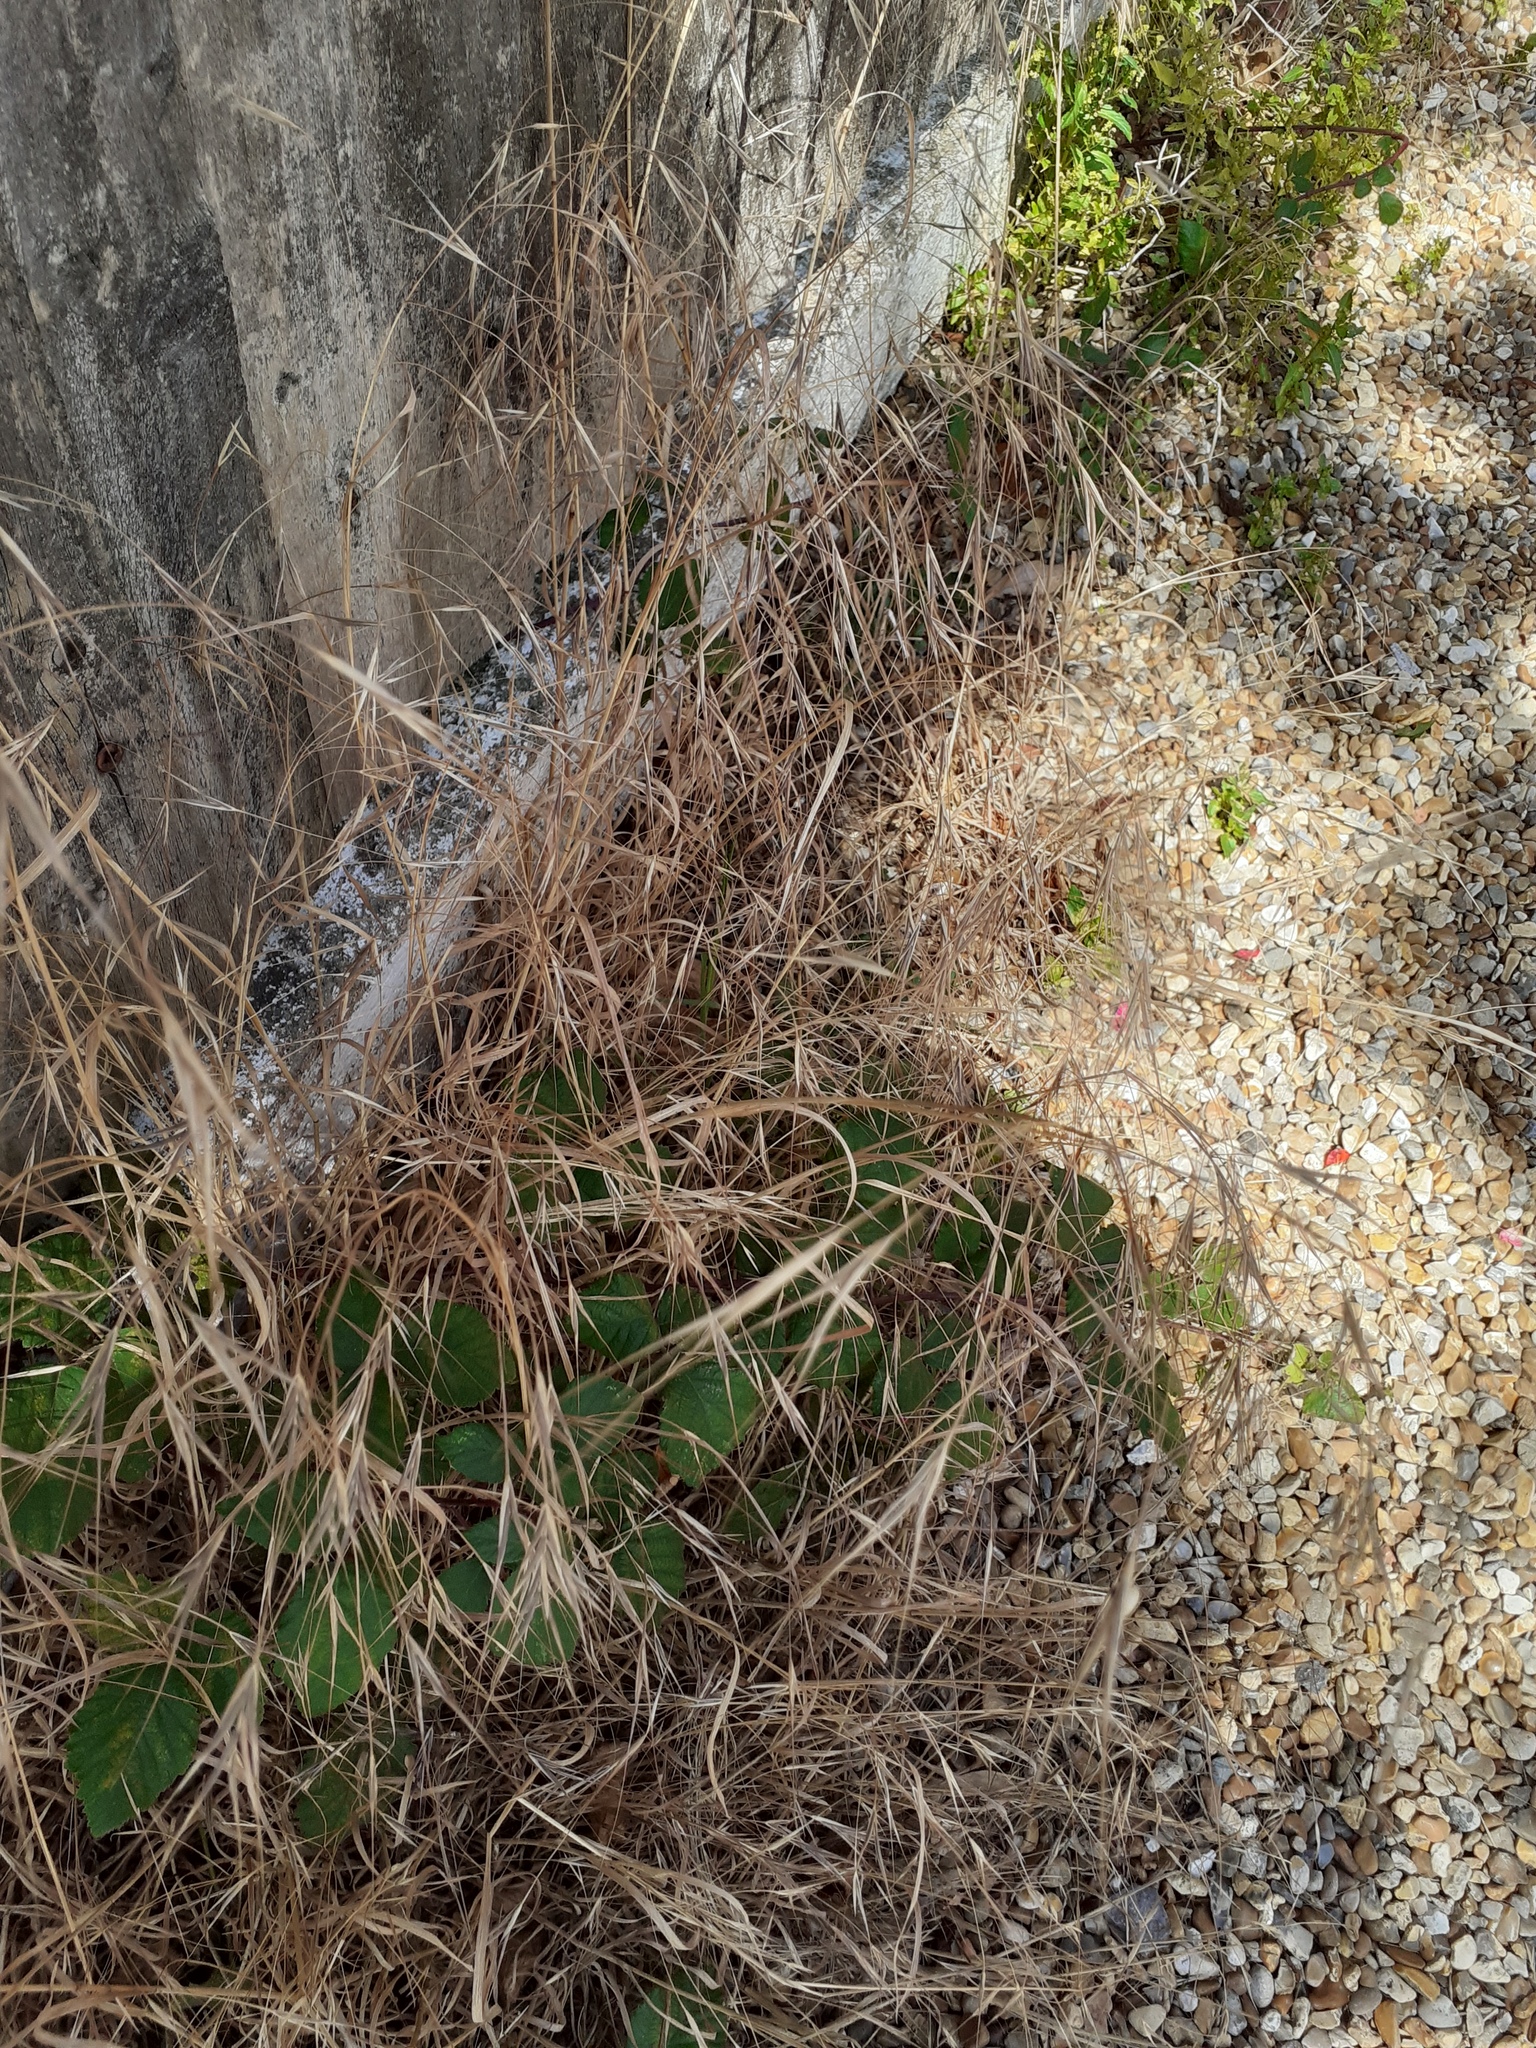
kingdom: Plantae
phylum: Tracheophyta
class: Liliopsida
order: Poales
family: Poaceae
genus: Bromus
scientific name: Bromus sterilis
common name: Poverty brome
